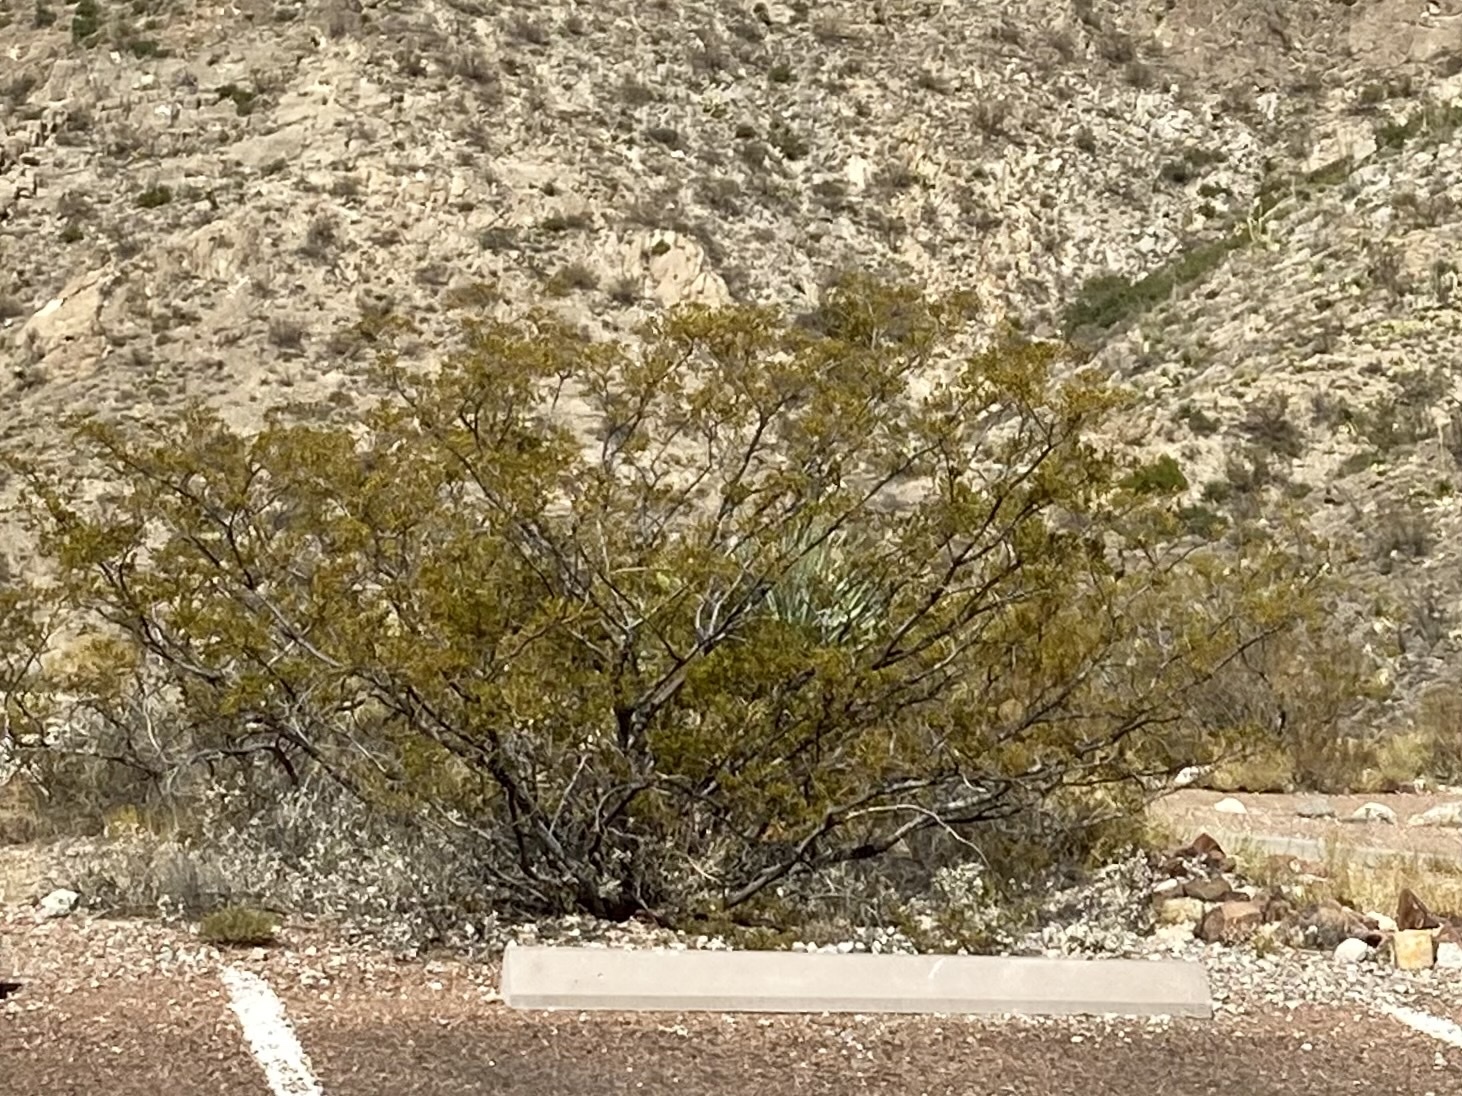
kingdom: Plantae
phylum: Tracheophyta
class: Magnoliopsida
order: Zygophyllales
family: Zygophyllaceae
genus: Larrea
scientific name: Larrea tridentata
